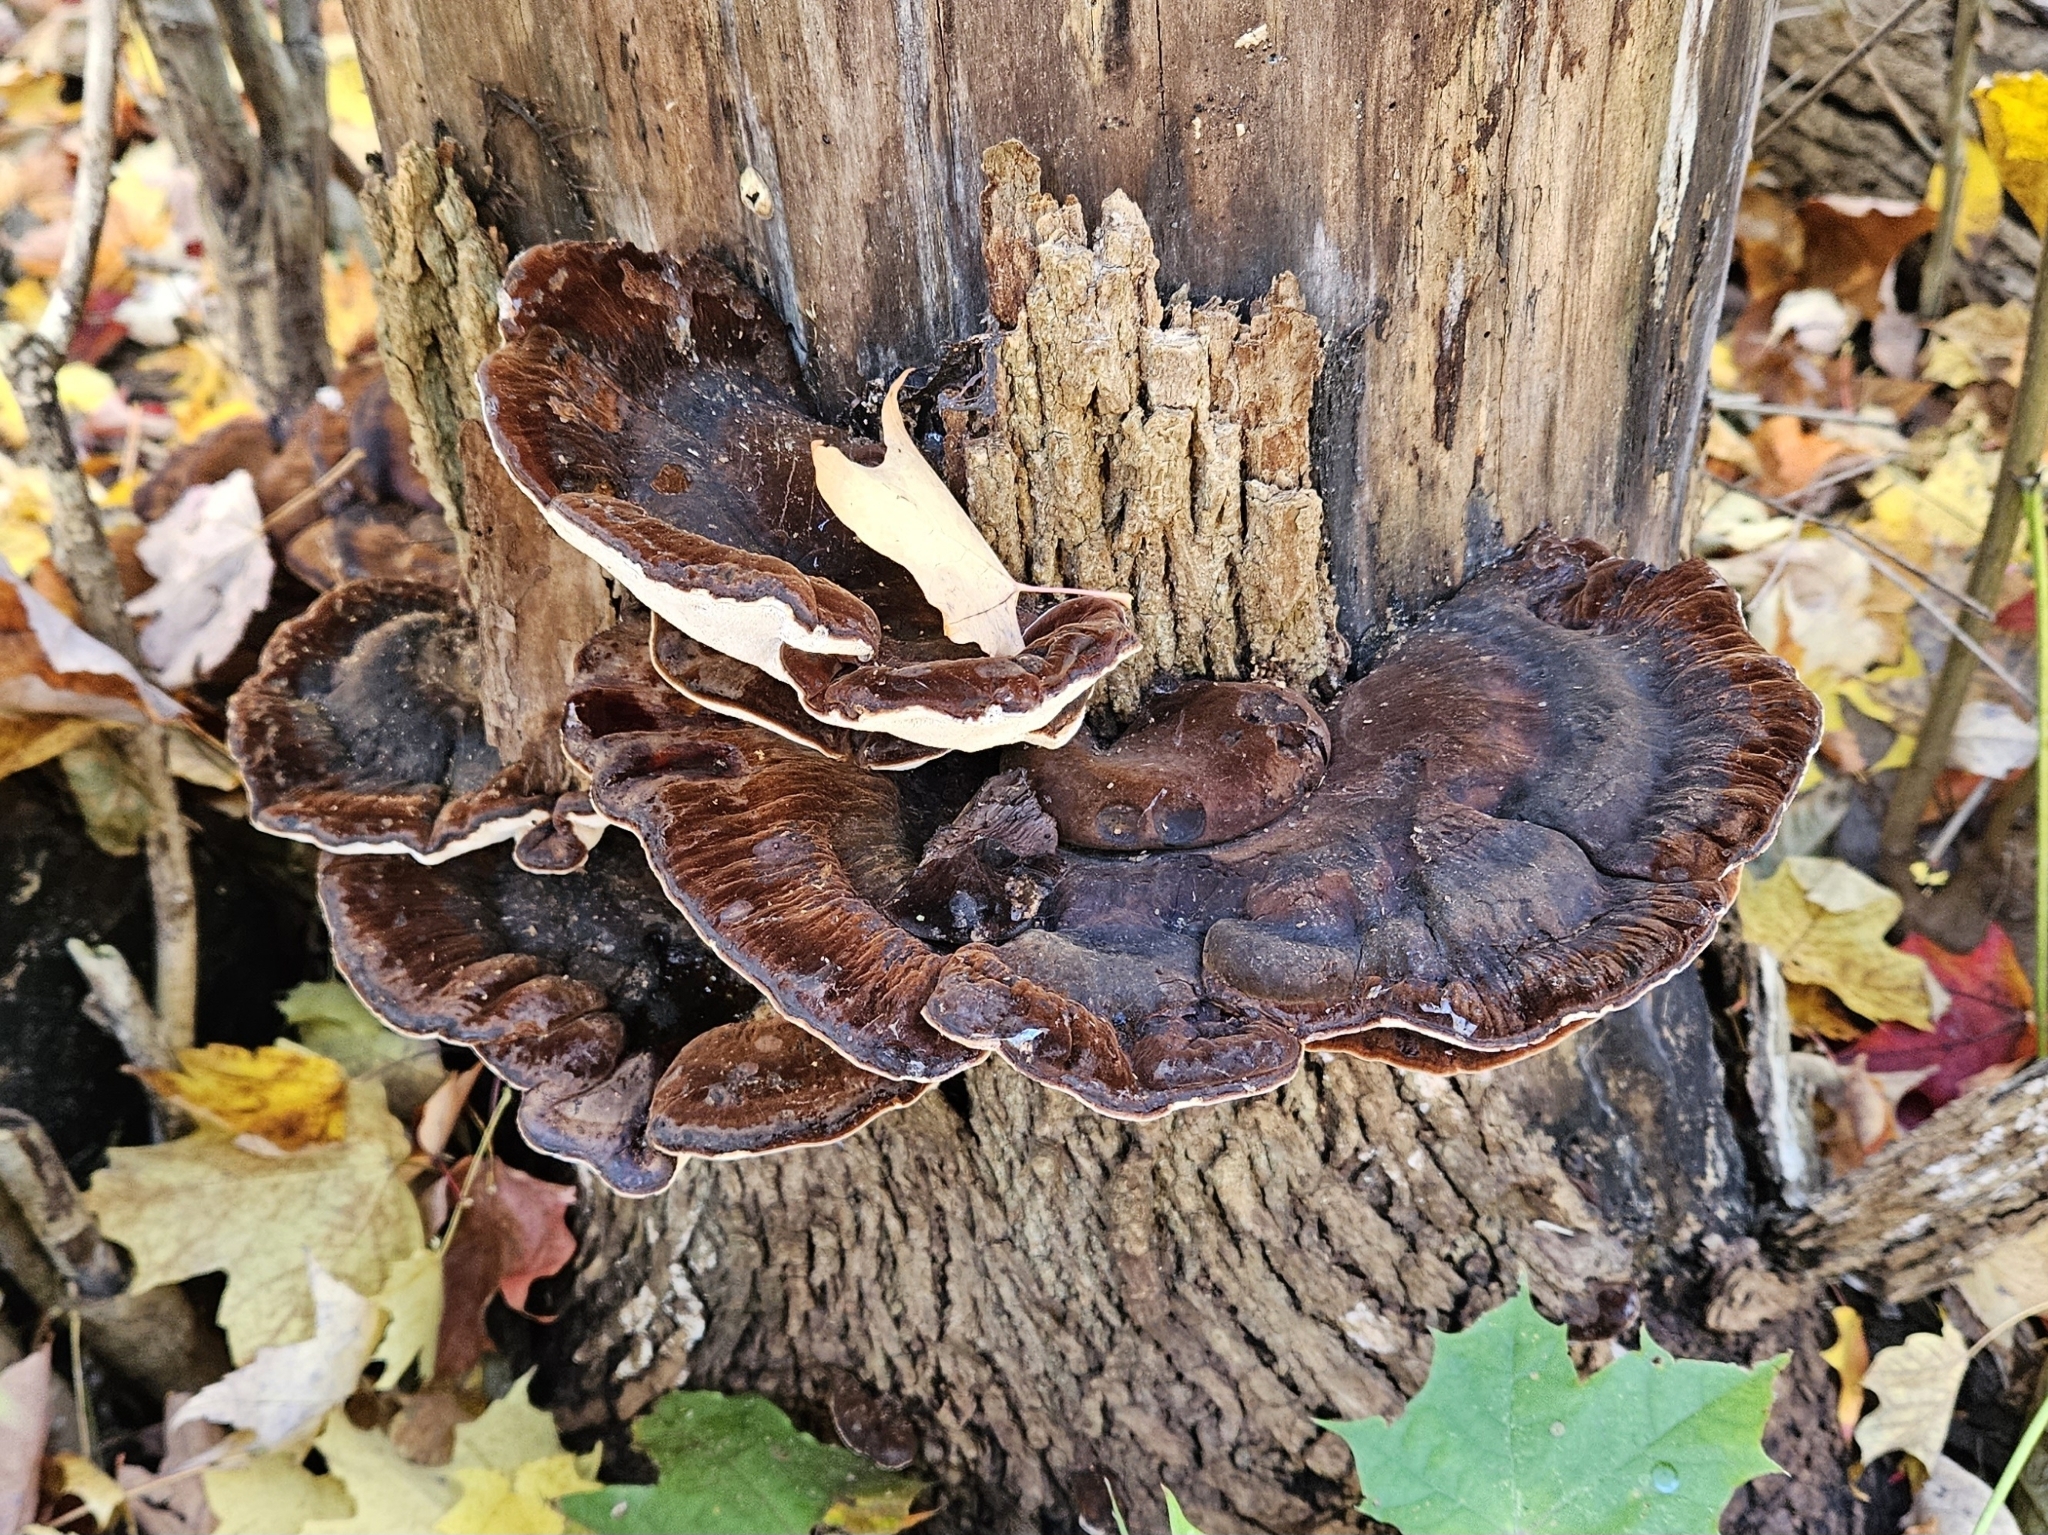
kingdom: Fungi
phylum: Basidiomycota
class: Agaricomycetes
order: Polyporales
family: Ischnodermataceae
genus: Ischnoderma
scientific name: Ischnoderma resinosum
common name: Resinous polypore
